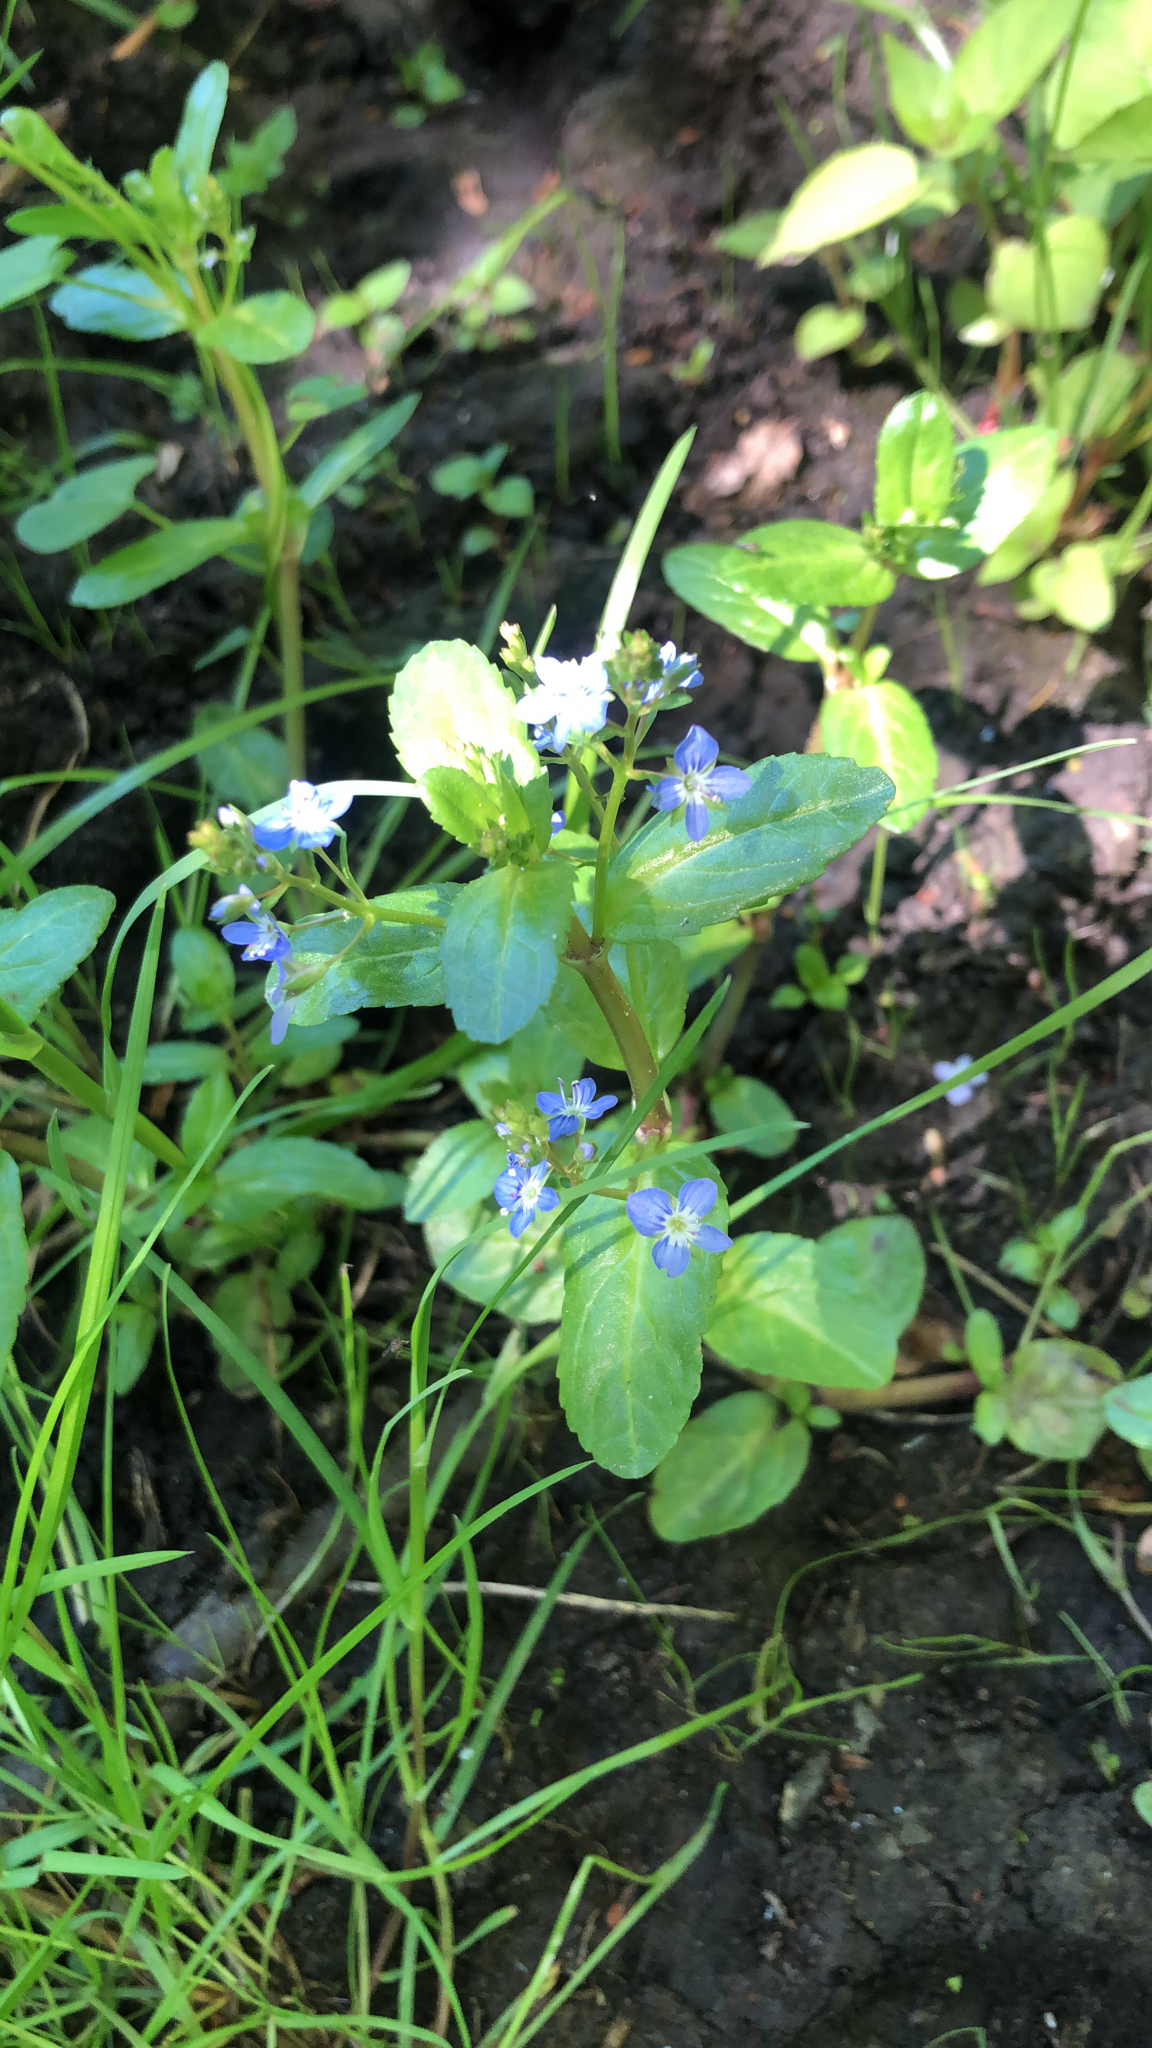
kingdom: Plantae
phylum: Tracheophyta
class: Magnoliopsida
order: Lamiales
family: Plantaginaceae
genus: Veronica
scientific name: Veronica beccabunga
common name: Brooklime
